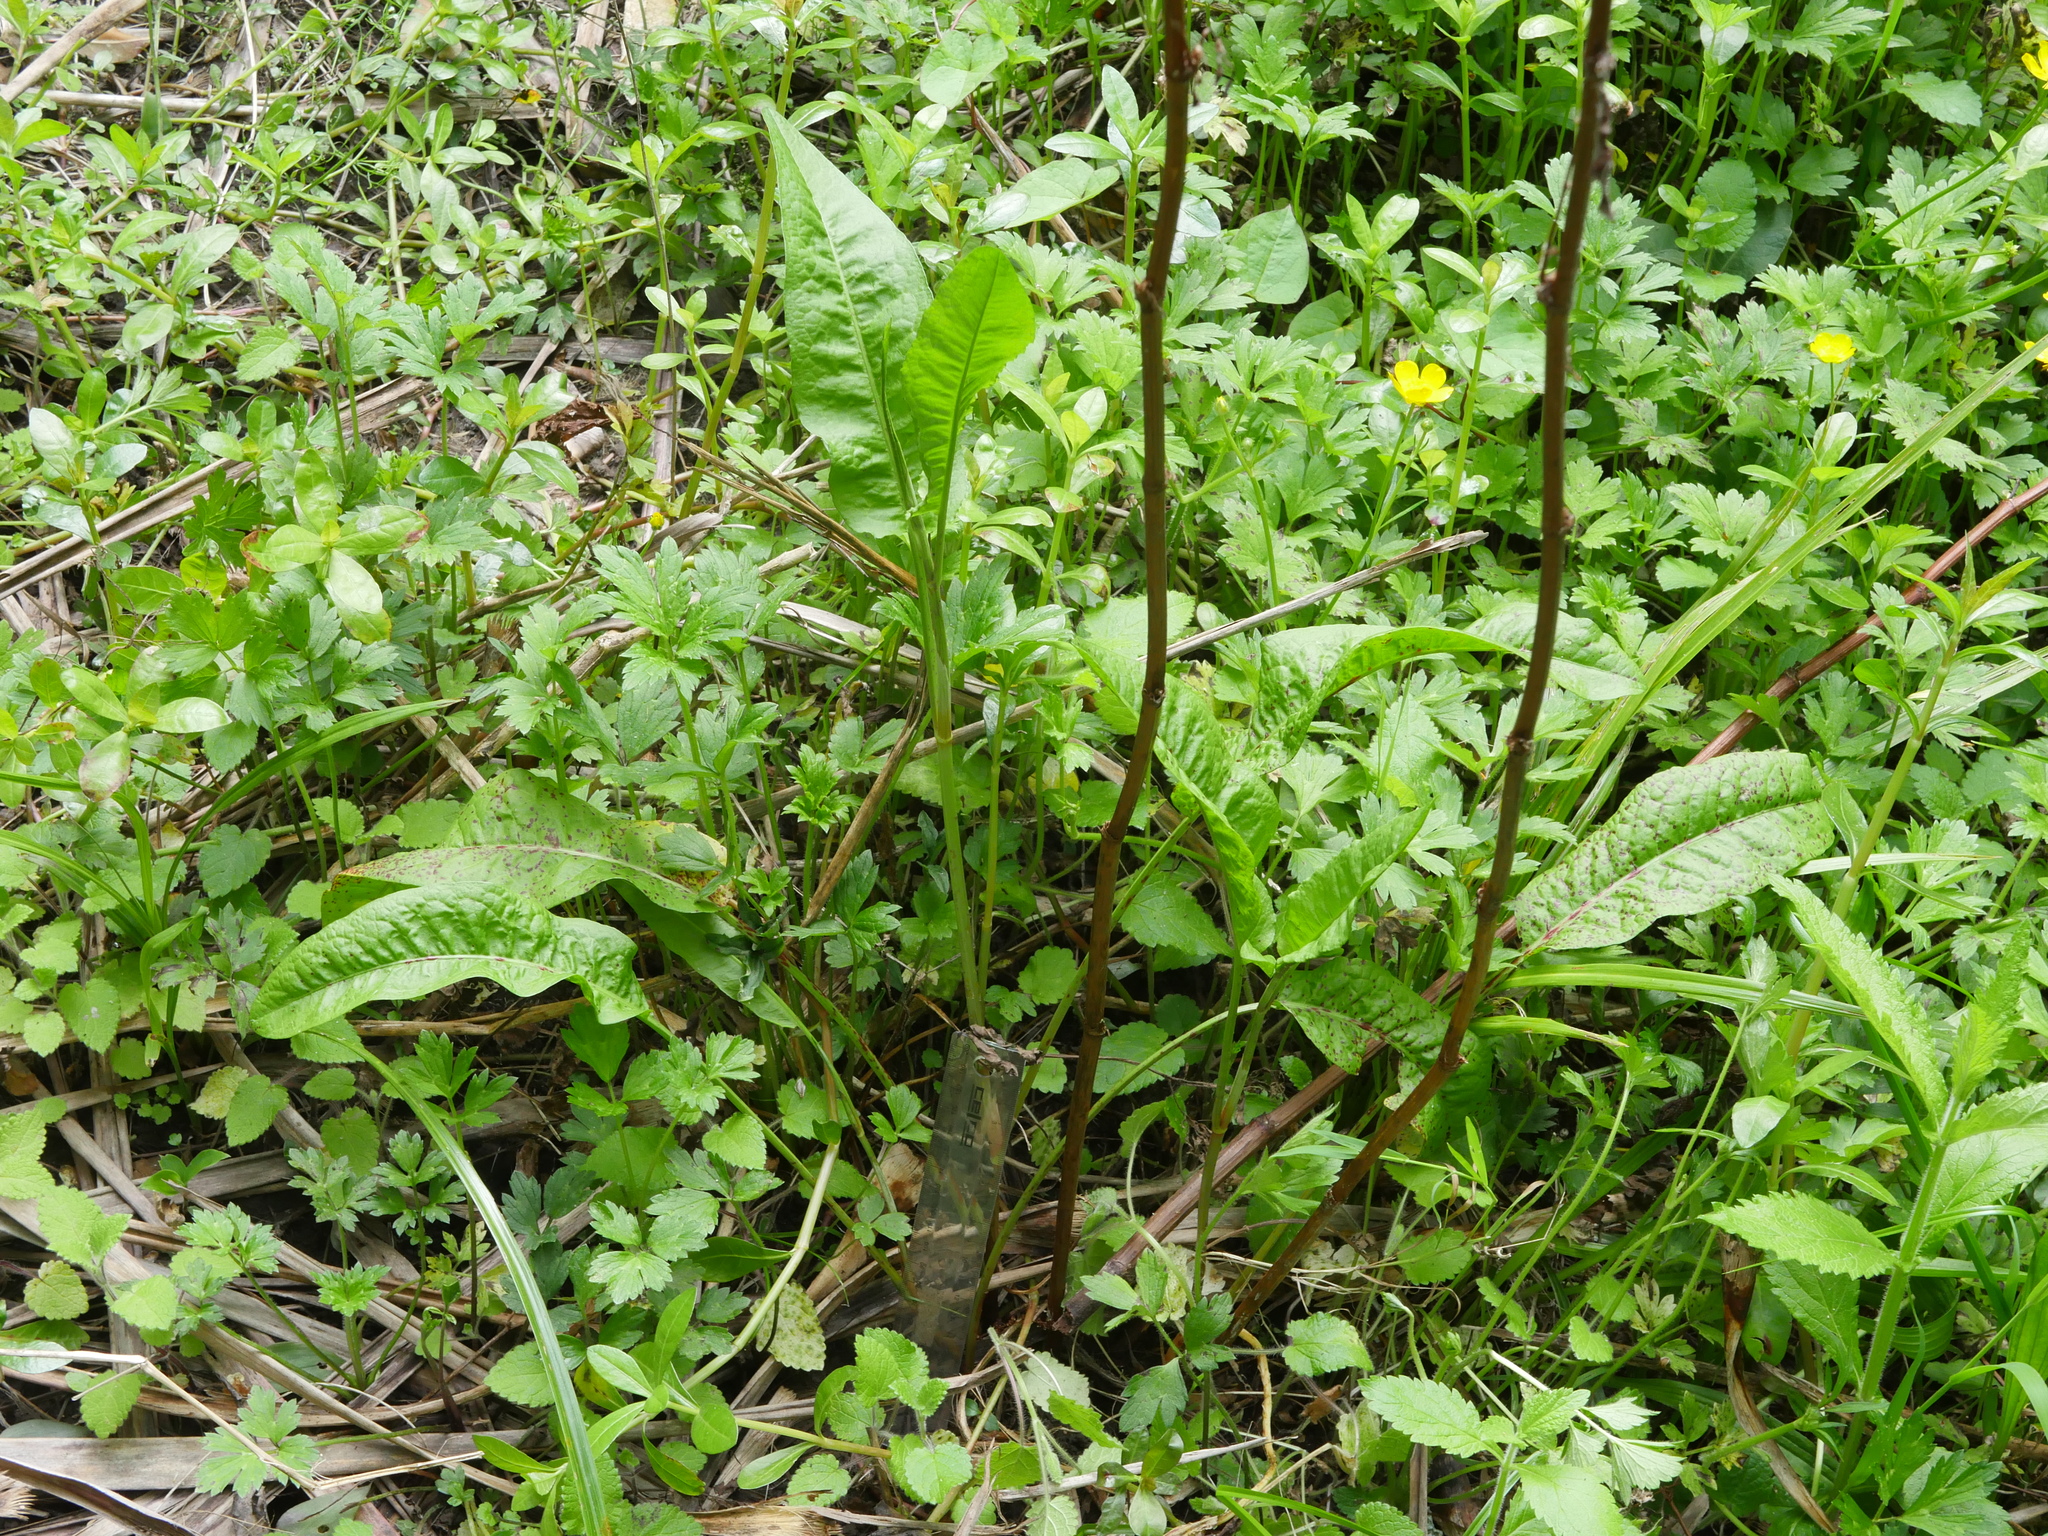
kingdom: Plantae
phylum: Tracheophyta
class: Magnoliopsida
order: Caryophyllales
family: Polygonaceae
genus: Rumex
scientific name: Rumex conglomeratus
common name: Clustered dock
